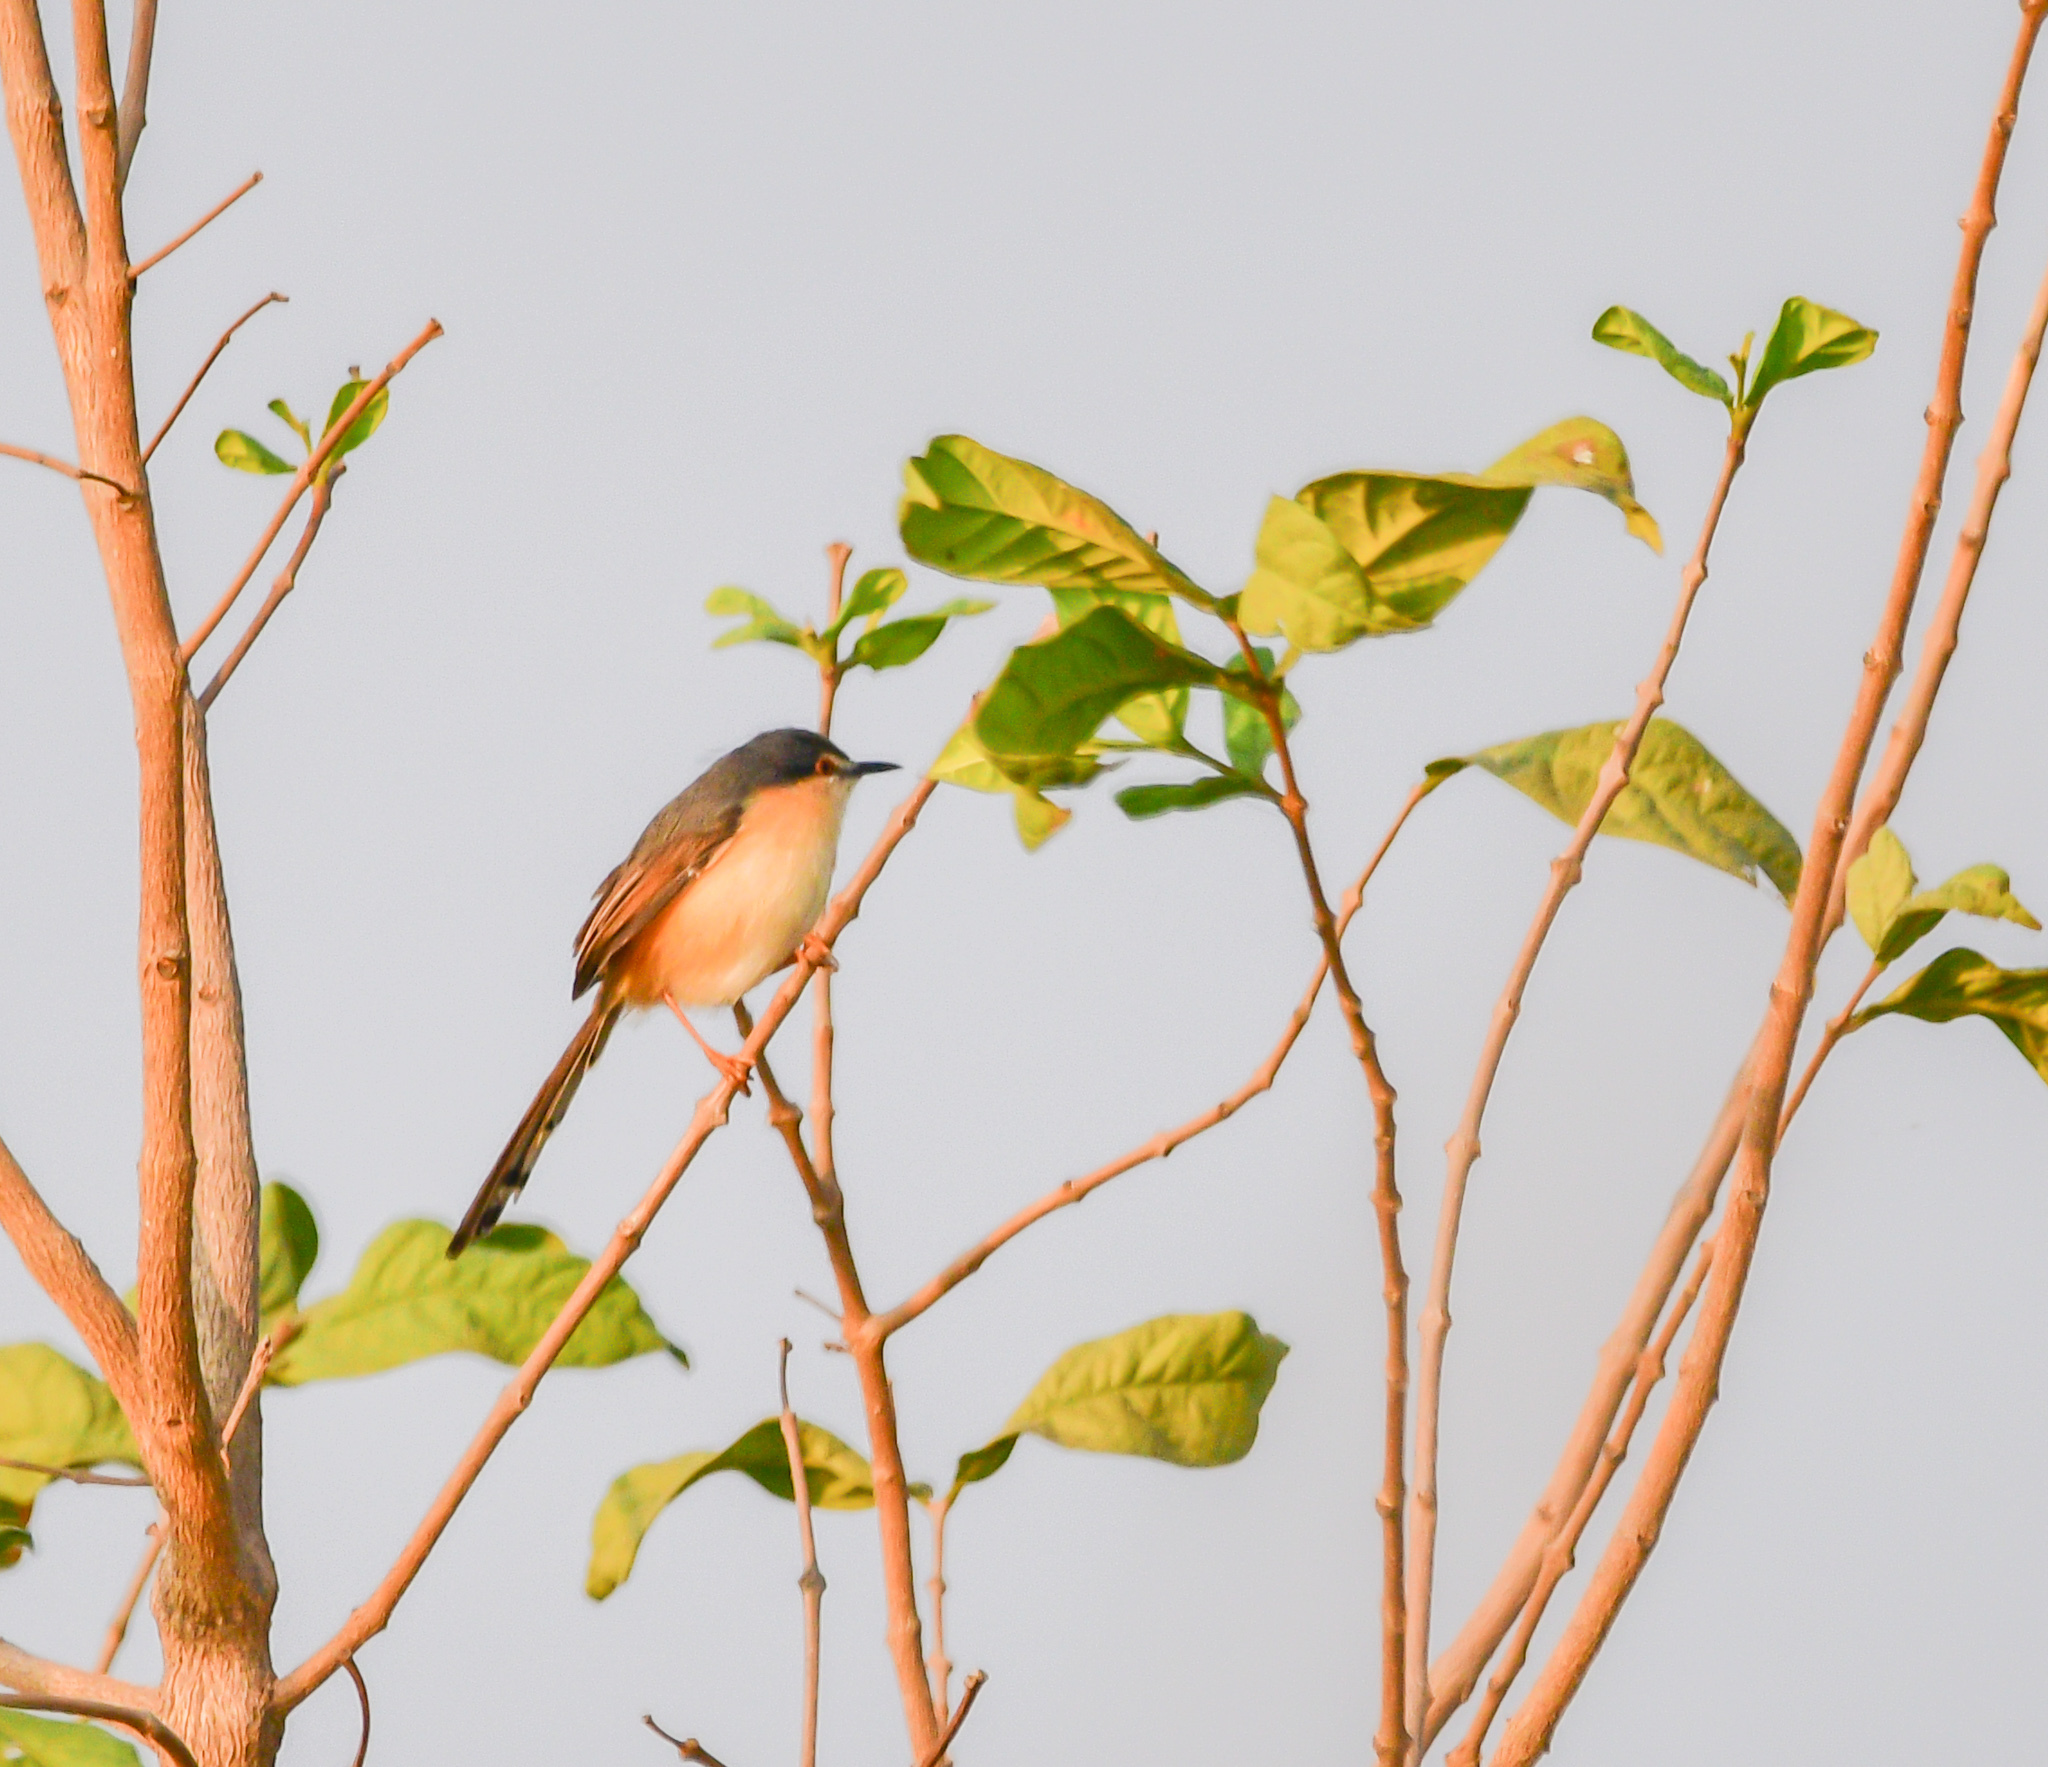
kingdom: Animalia
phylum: Chordata
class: Aves
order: Passeriformes
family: Cisticolidae
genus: Prinia
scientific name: Prinia socialis
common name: Ashy prinia
